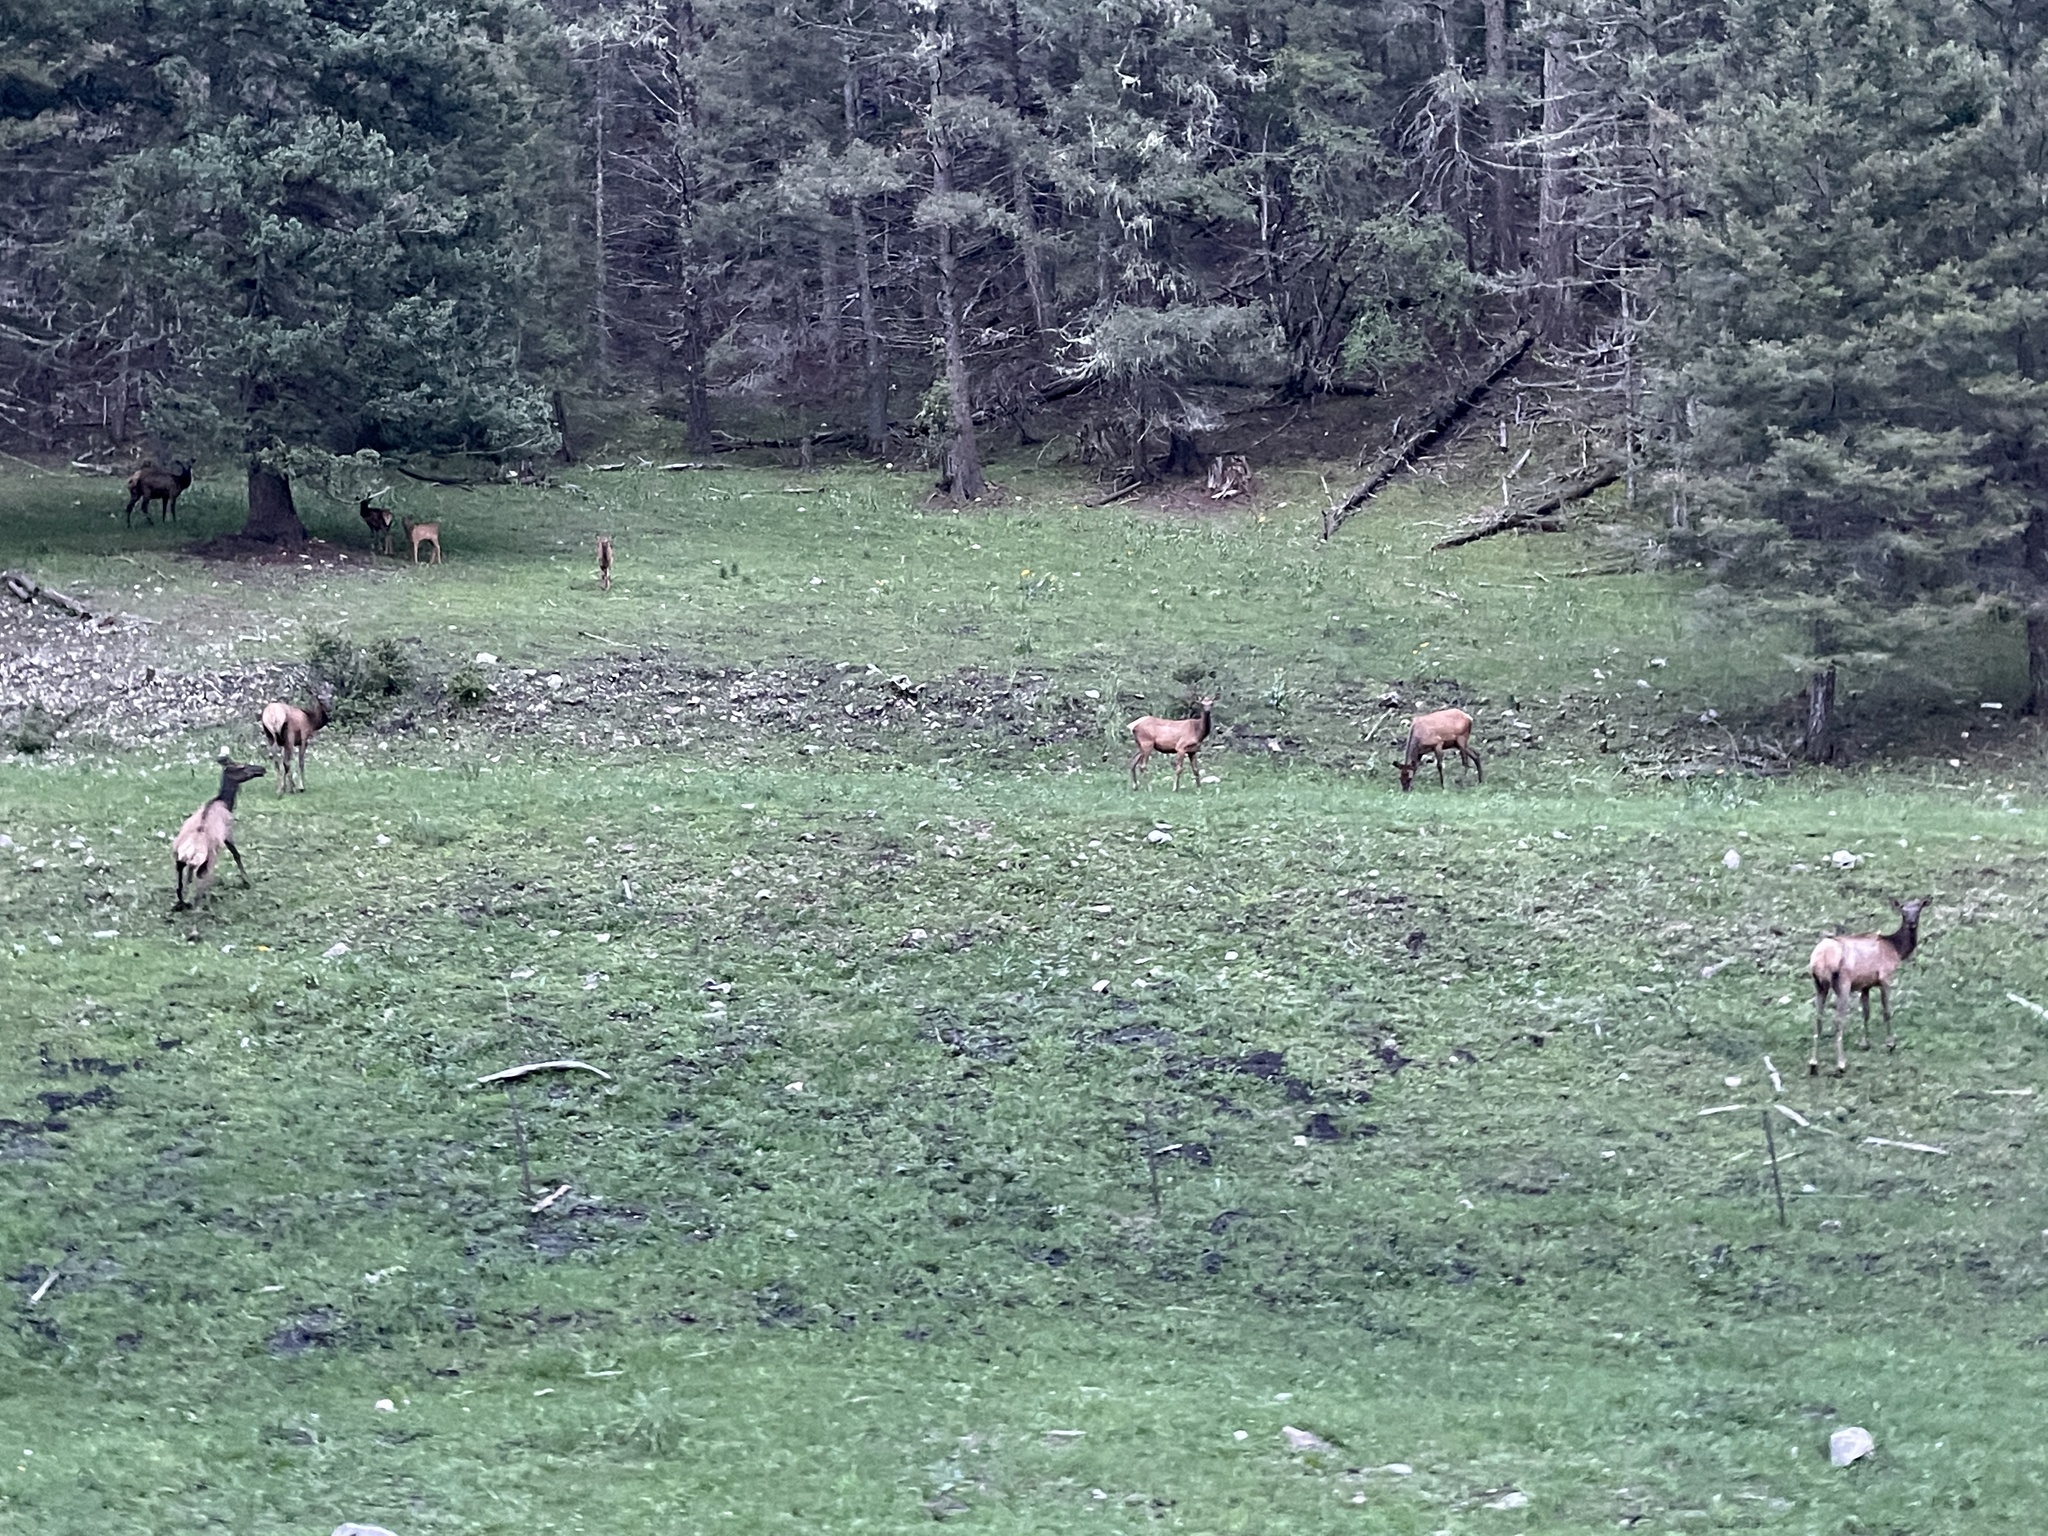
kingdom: Animalia
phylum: Chordata
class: Mammalia
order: Artiodactyla
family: Cervidae
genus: Cervus
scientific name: Cervus elaphus
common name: Red deer
